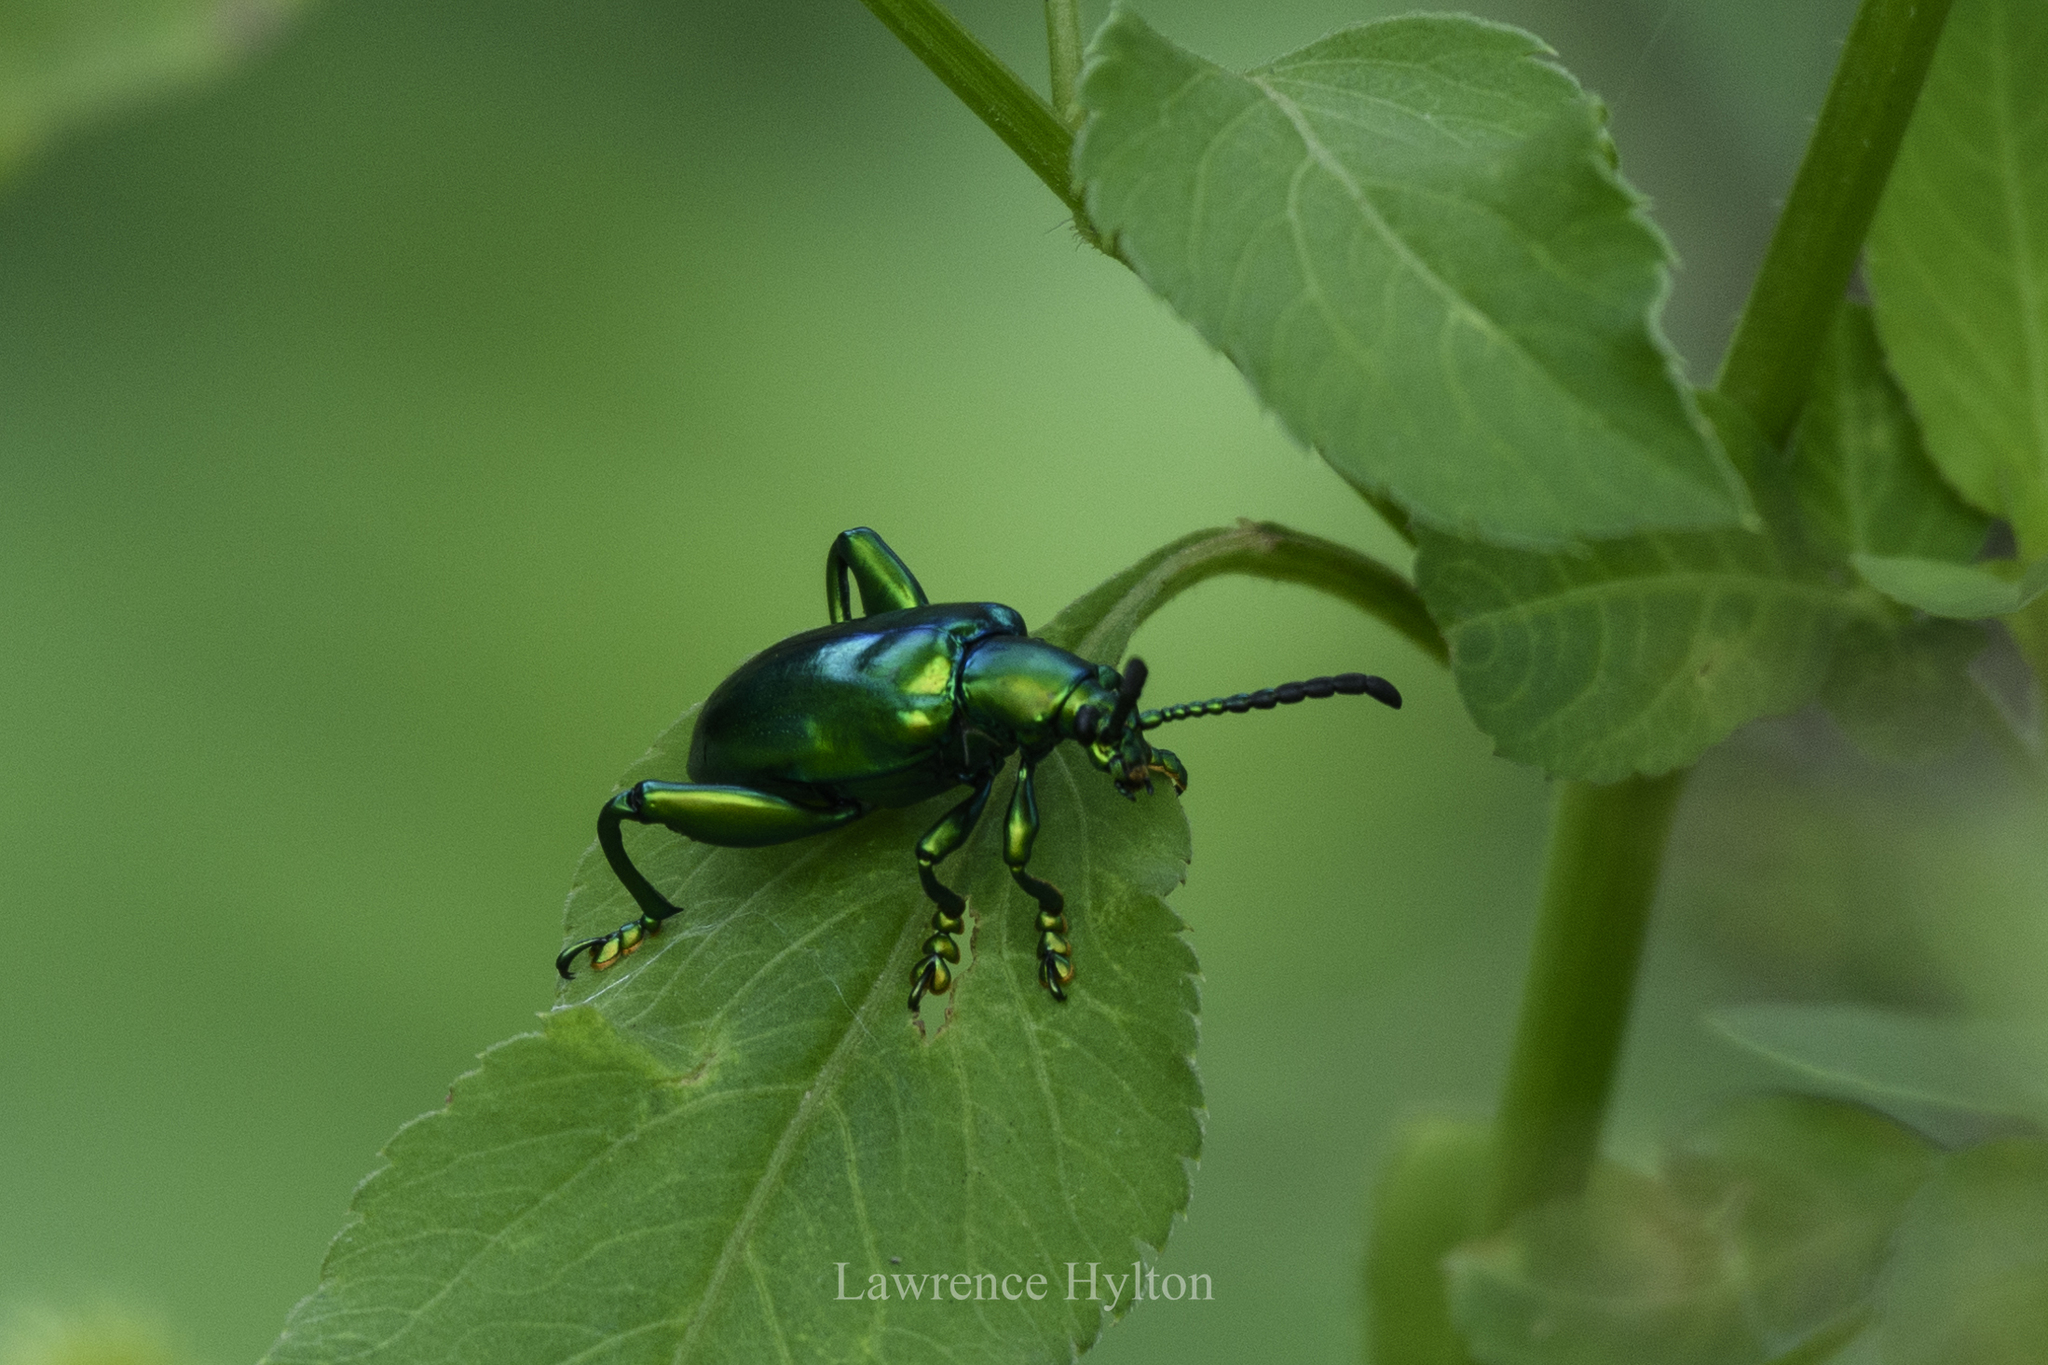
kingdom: Animalia
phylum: Arthropoda
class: Insecta
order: Coleoptera
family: Chrysomelidae
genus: Sagra
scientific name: Sagra femorata
